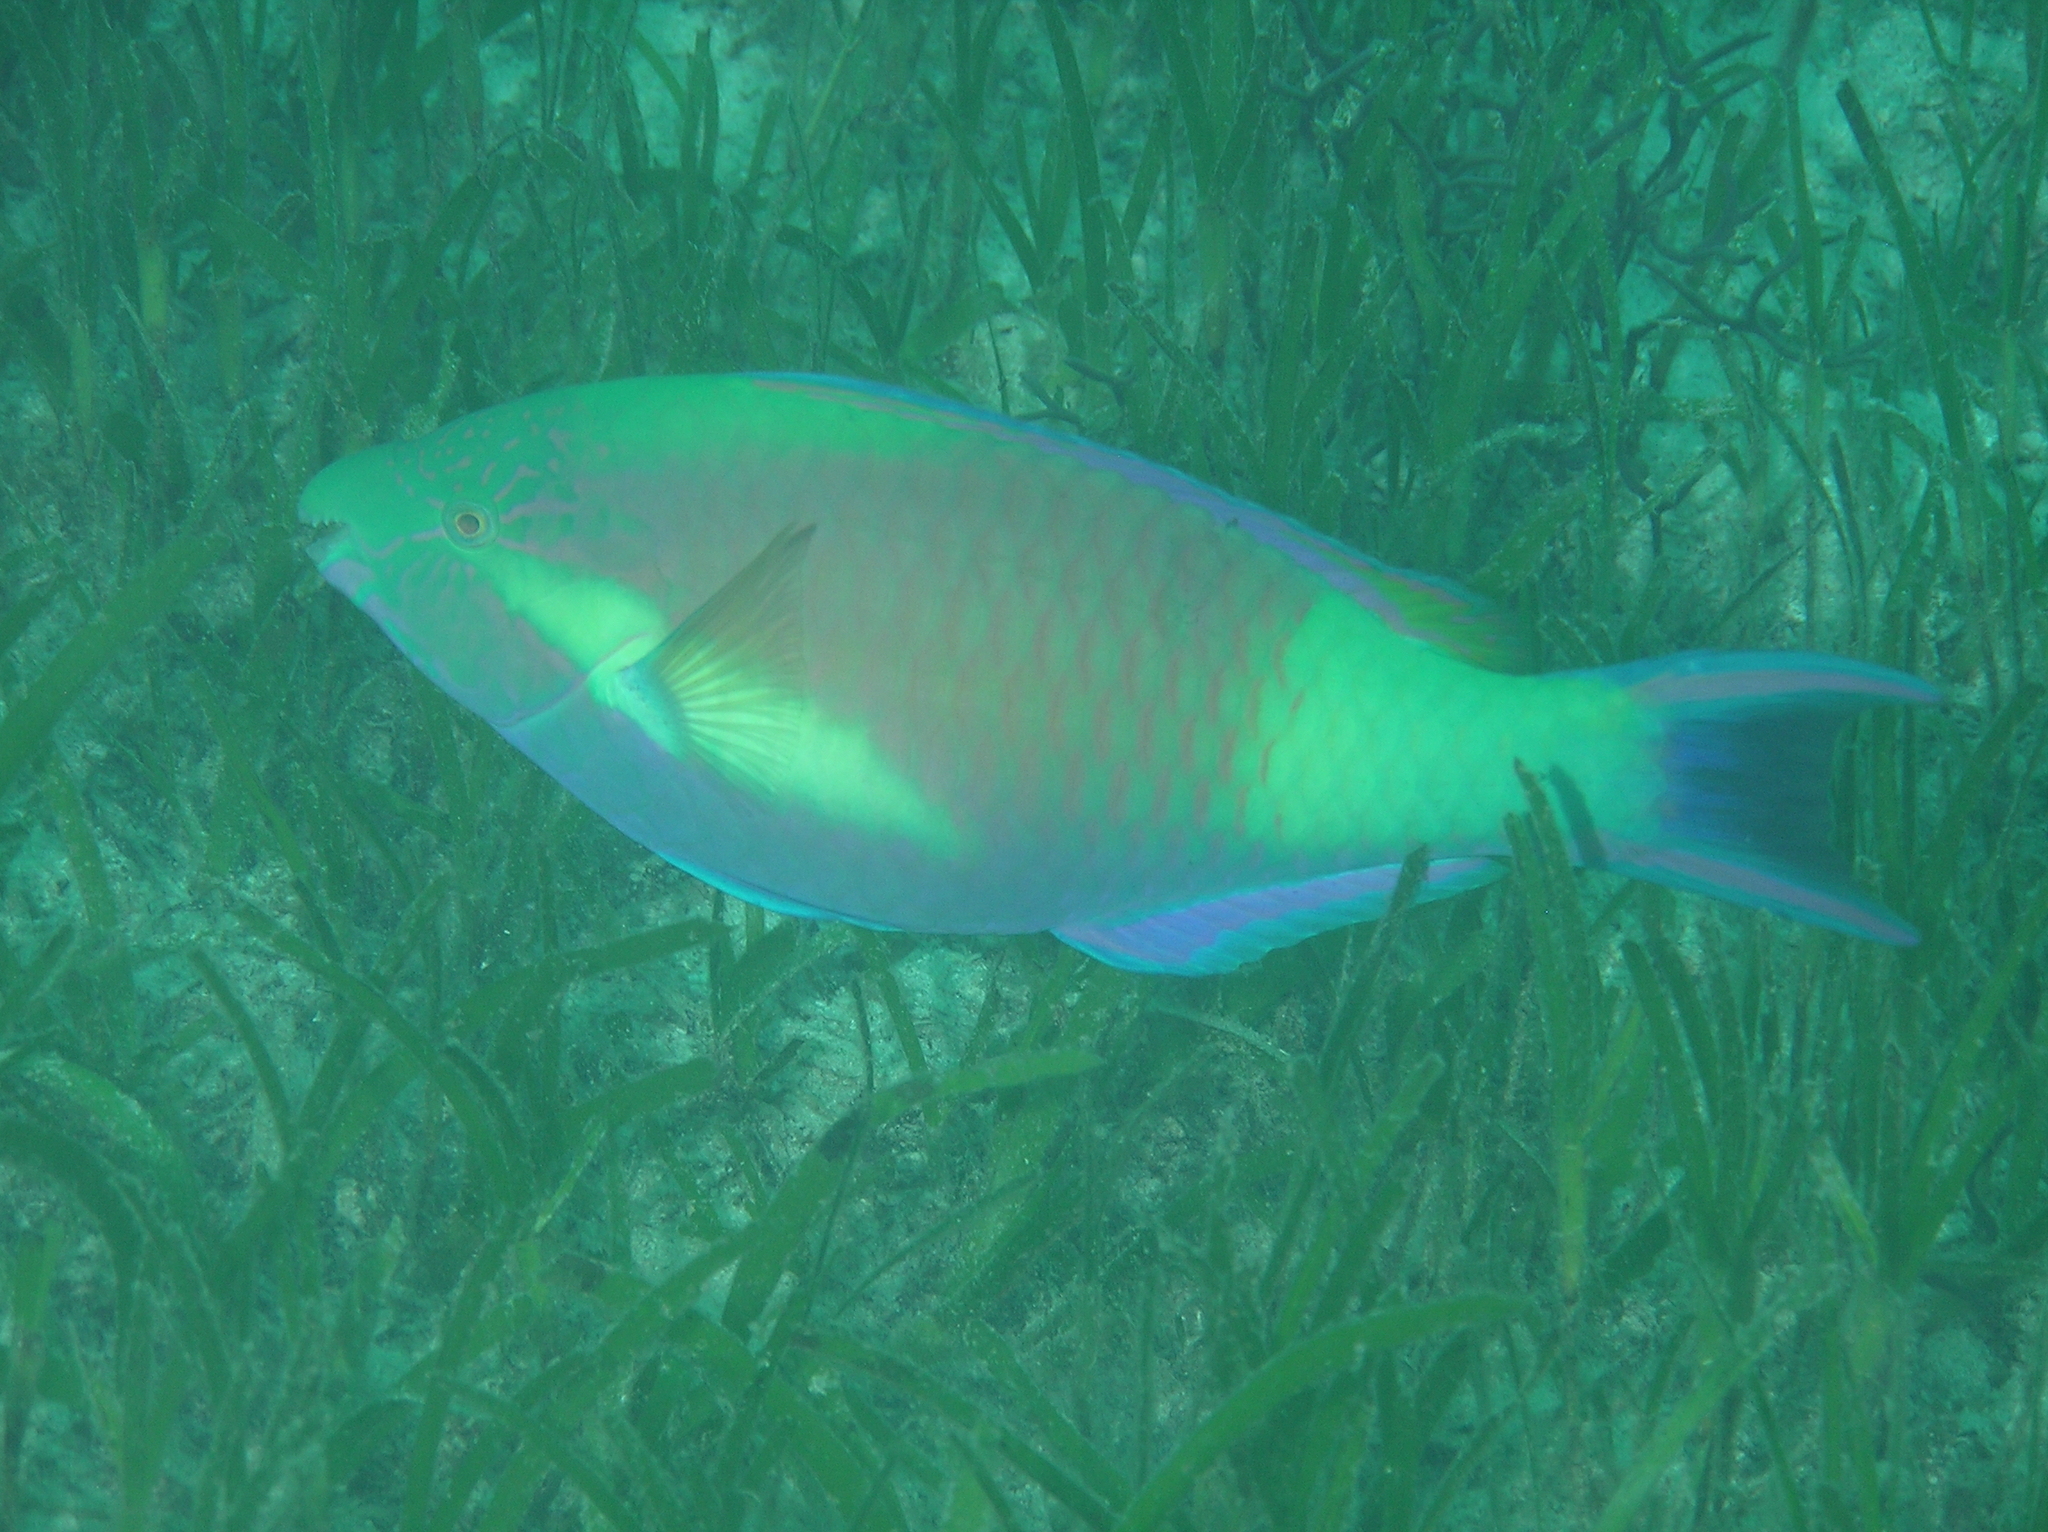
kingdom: Animalia
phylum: Chordata
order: Perciformes
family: Scaridae
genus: Scarus
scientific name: Scarus hypselopterus
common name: Java parrotfish
